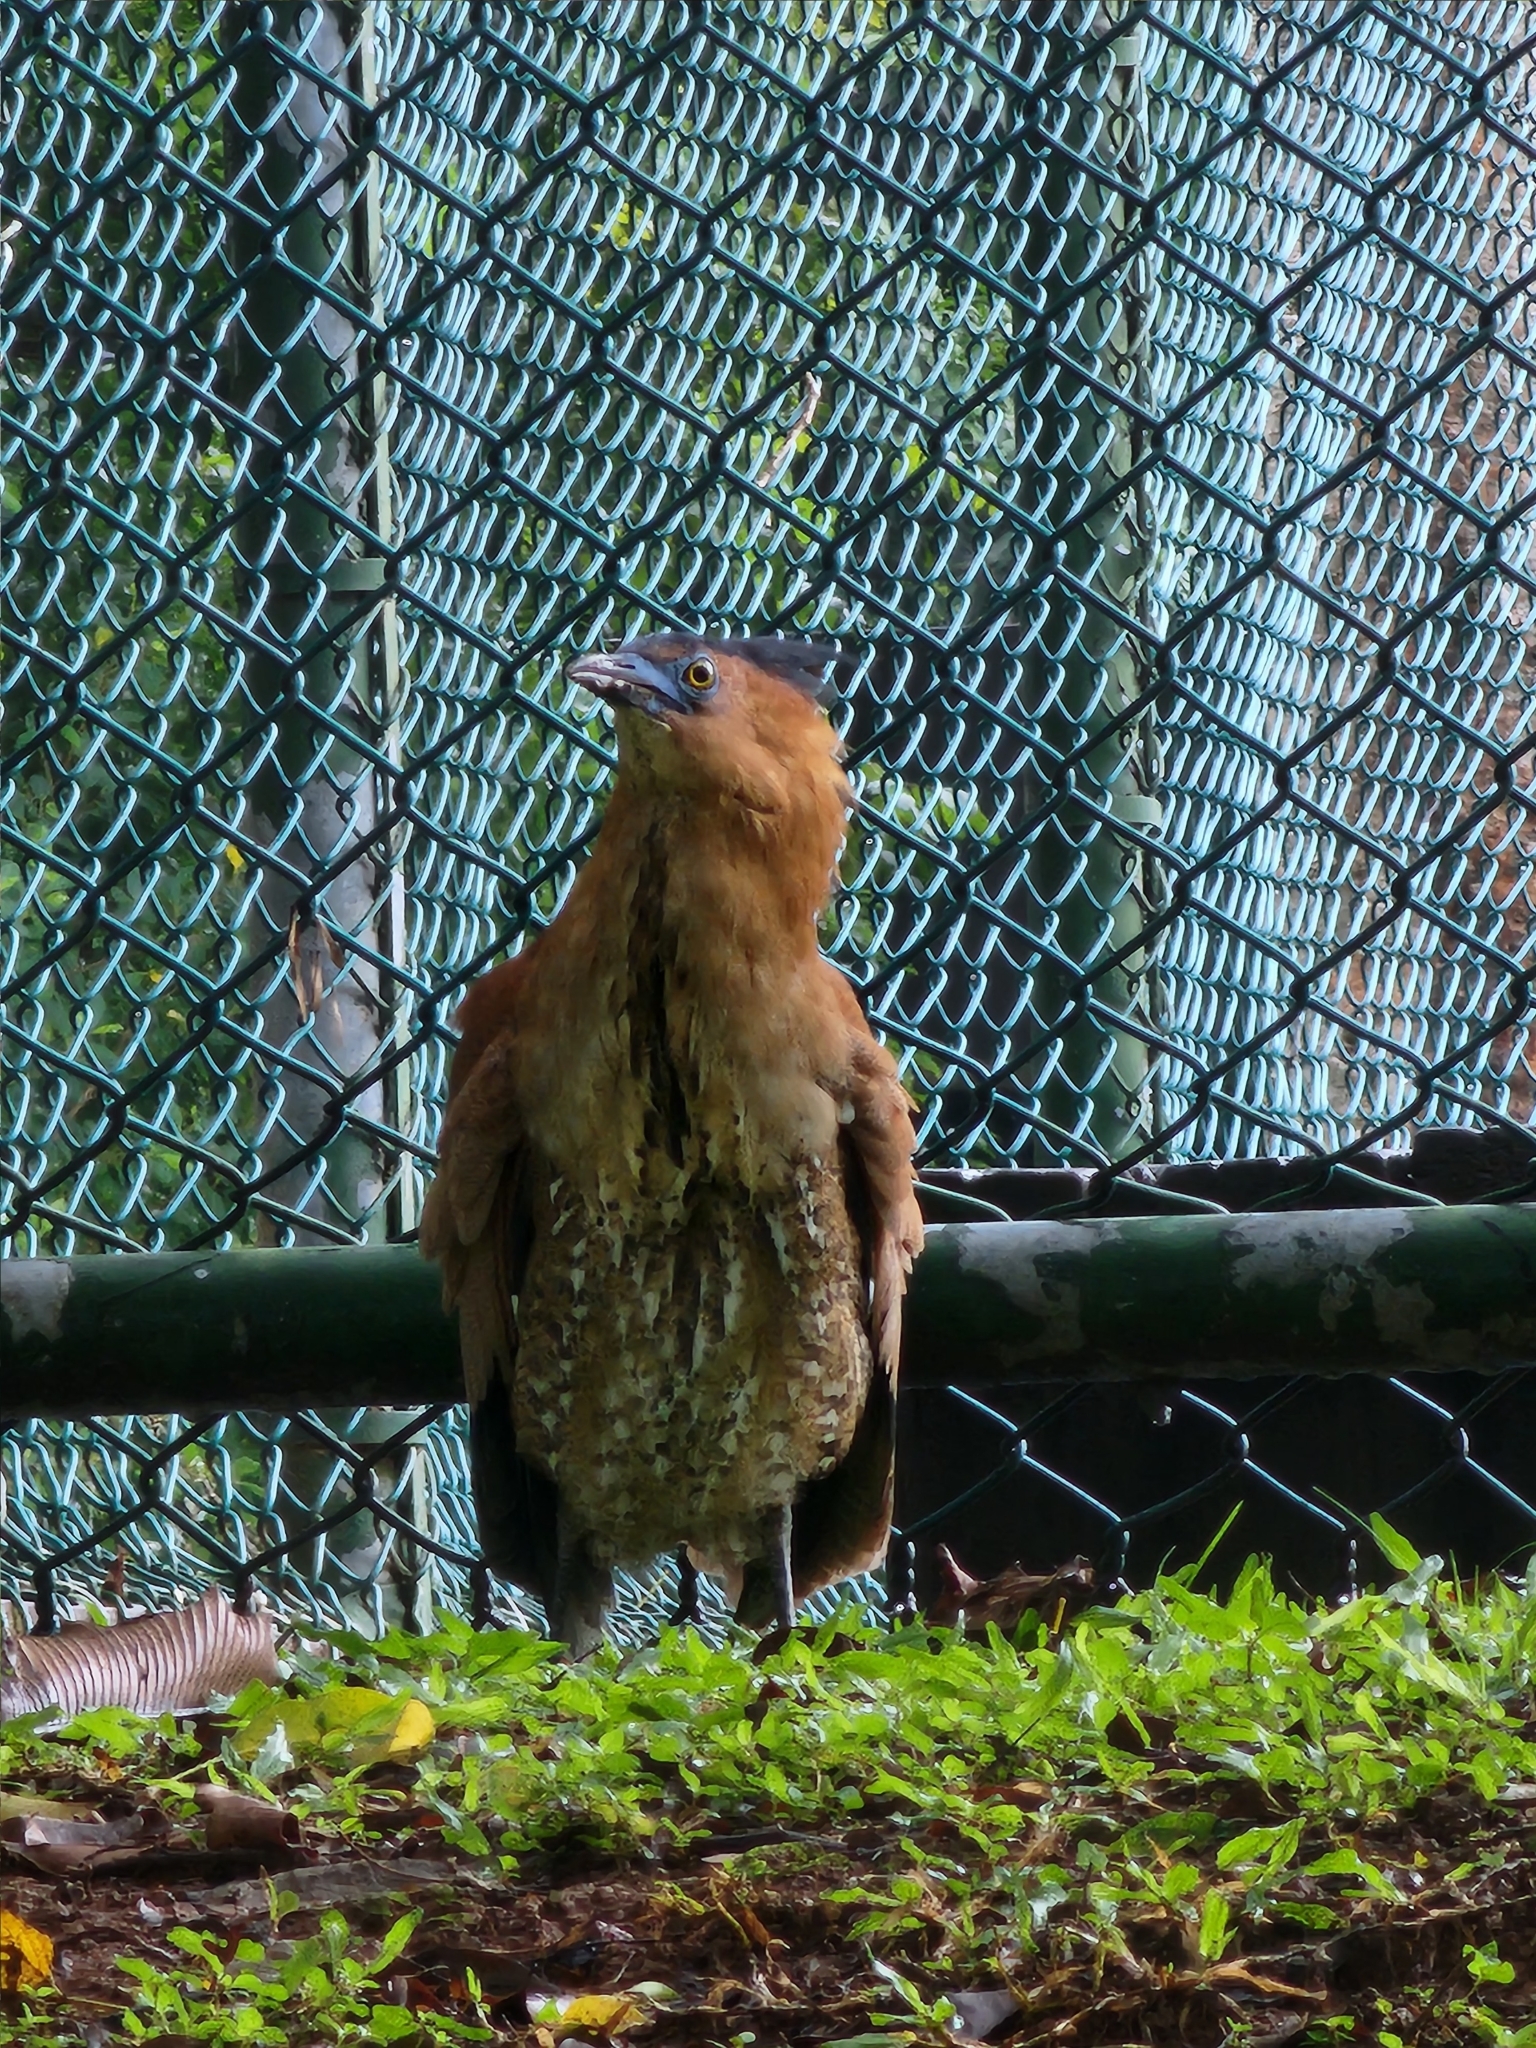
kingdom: Animalia
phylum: Chordata
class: Aves
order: Pelecaniformes
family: Ardeidae
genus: Gorsachius
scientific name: Gorsachius melanolophus
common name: Malayan night heron
